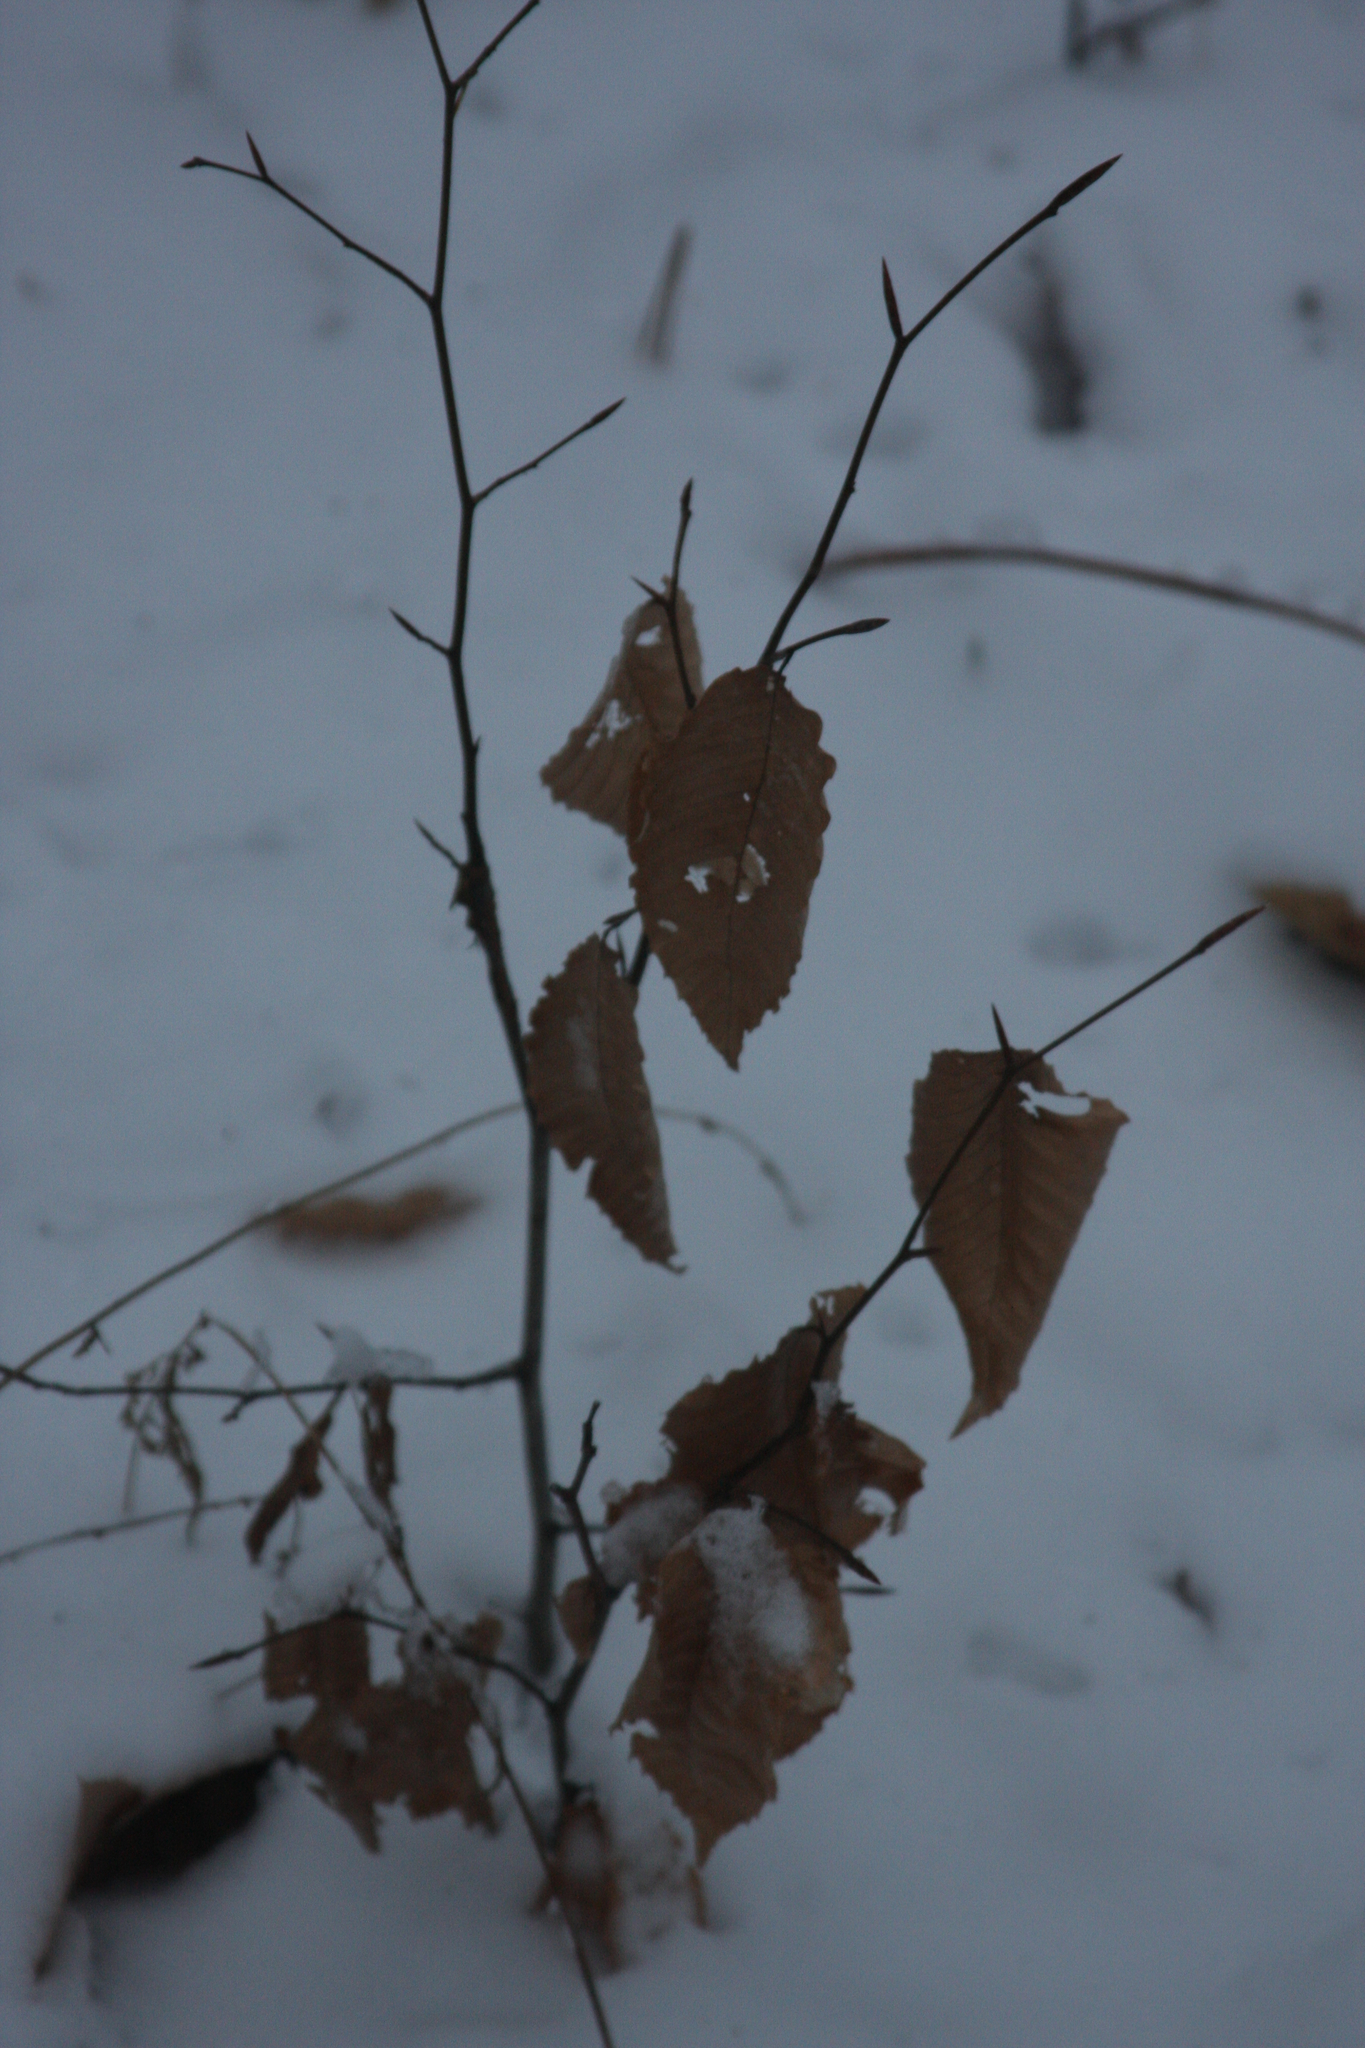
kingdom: Plantae
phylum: Tracheophyta
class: Magnoliopsida
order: Fagales
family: Fagaceae
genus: Fagus
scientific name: Fagus grandifolia
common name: American beech
